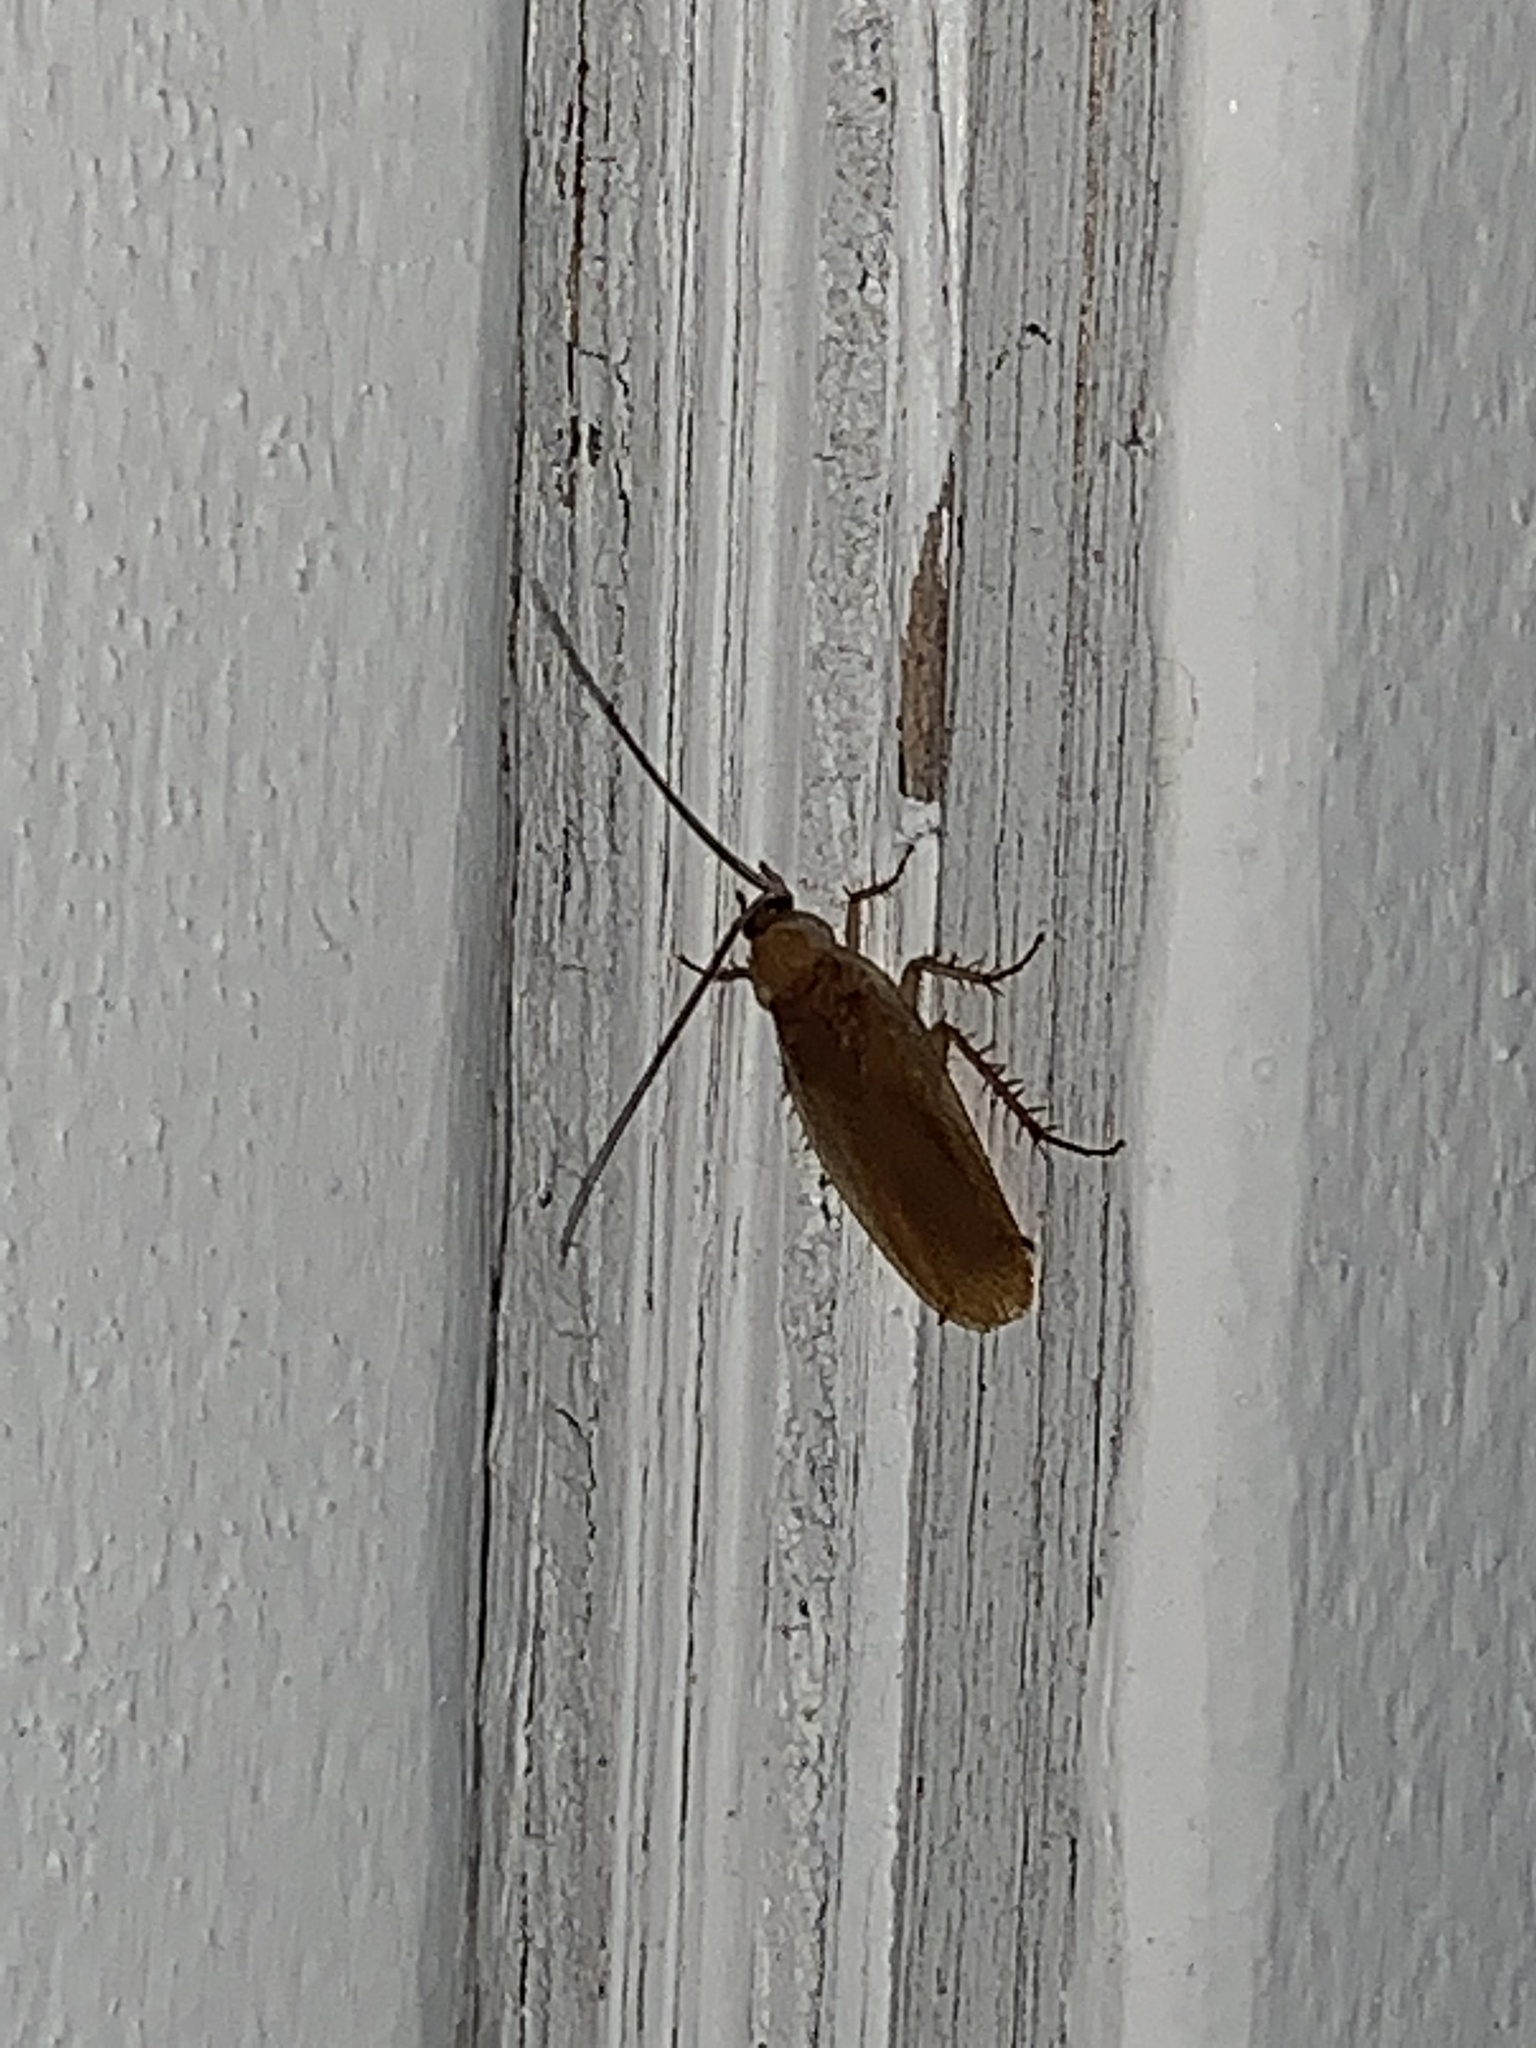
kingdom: Animalia
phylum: Arthropoda
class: Insecta
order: Blattodea
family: Ectobiidae
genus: Parcoblatta
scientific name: Parcoblatta
